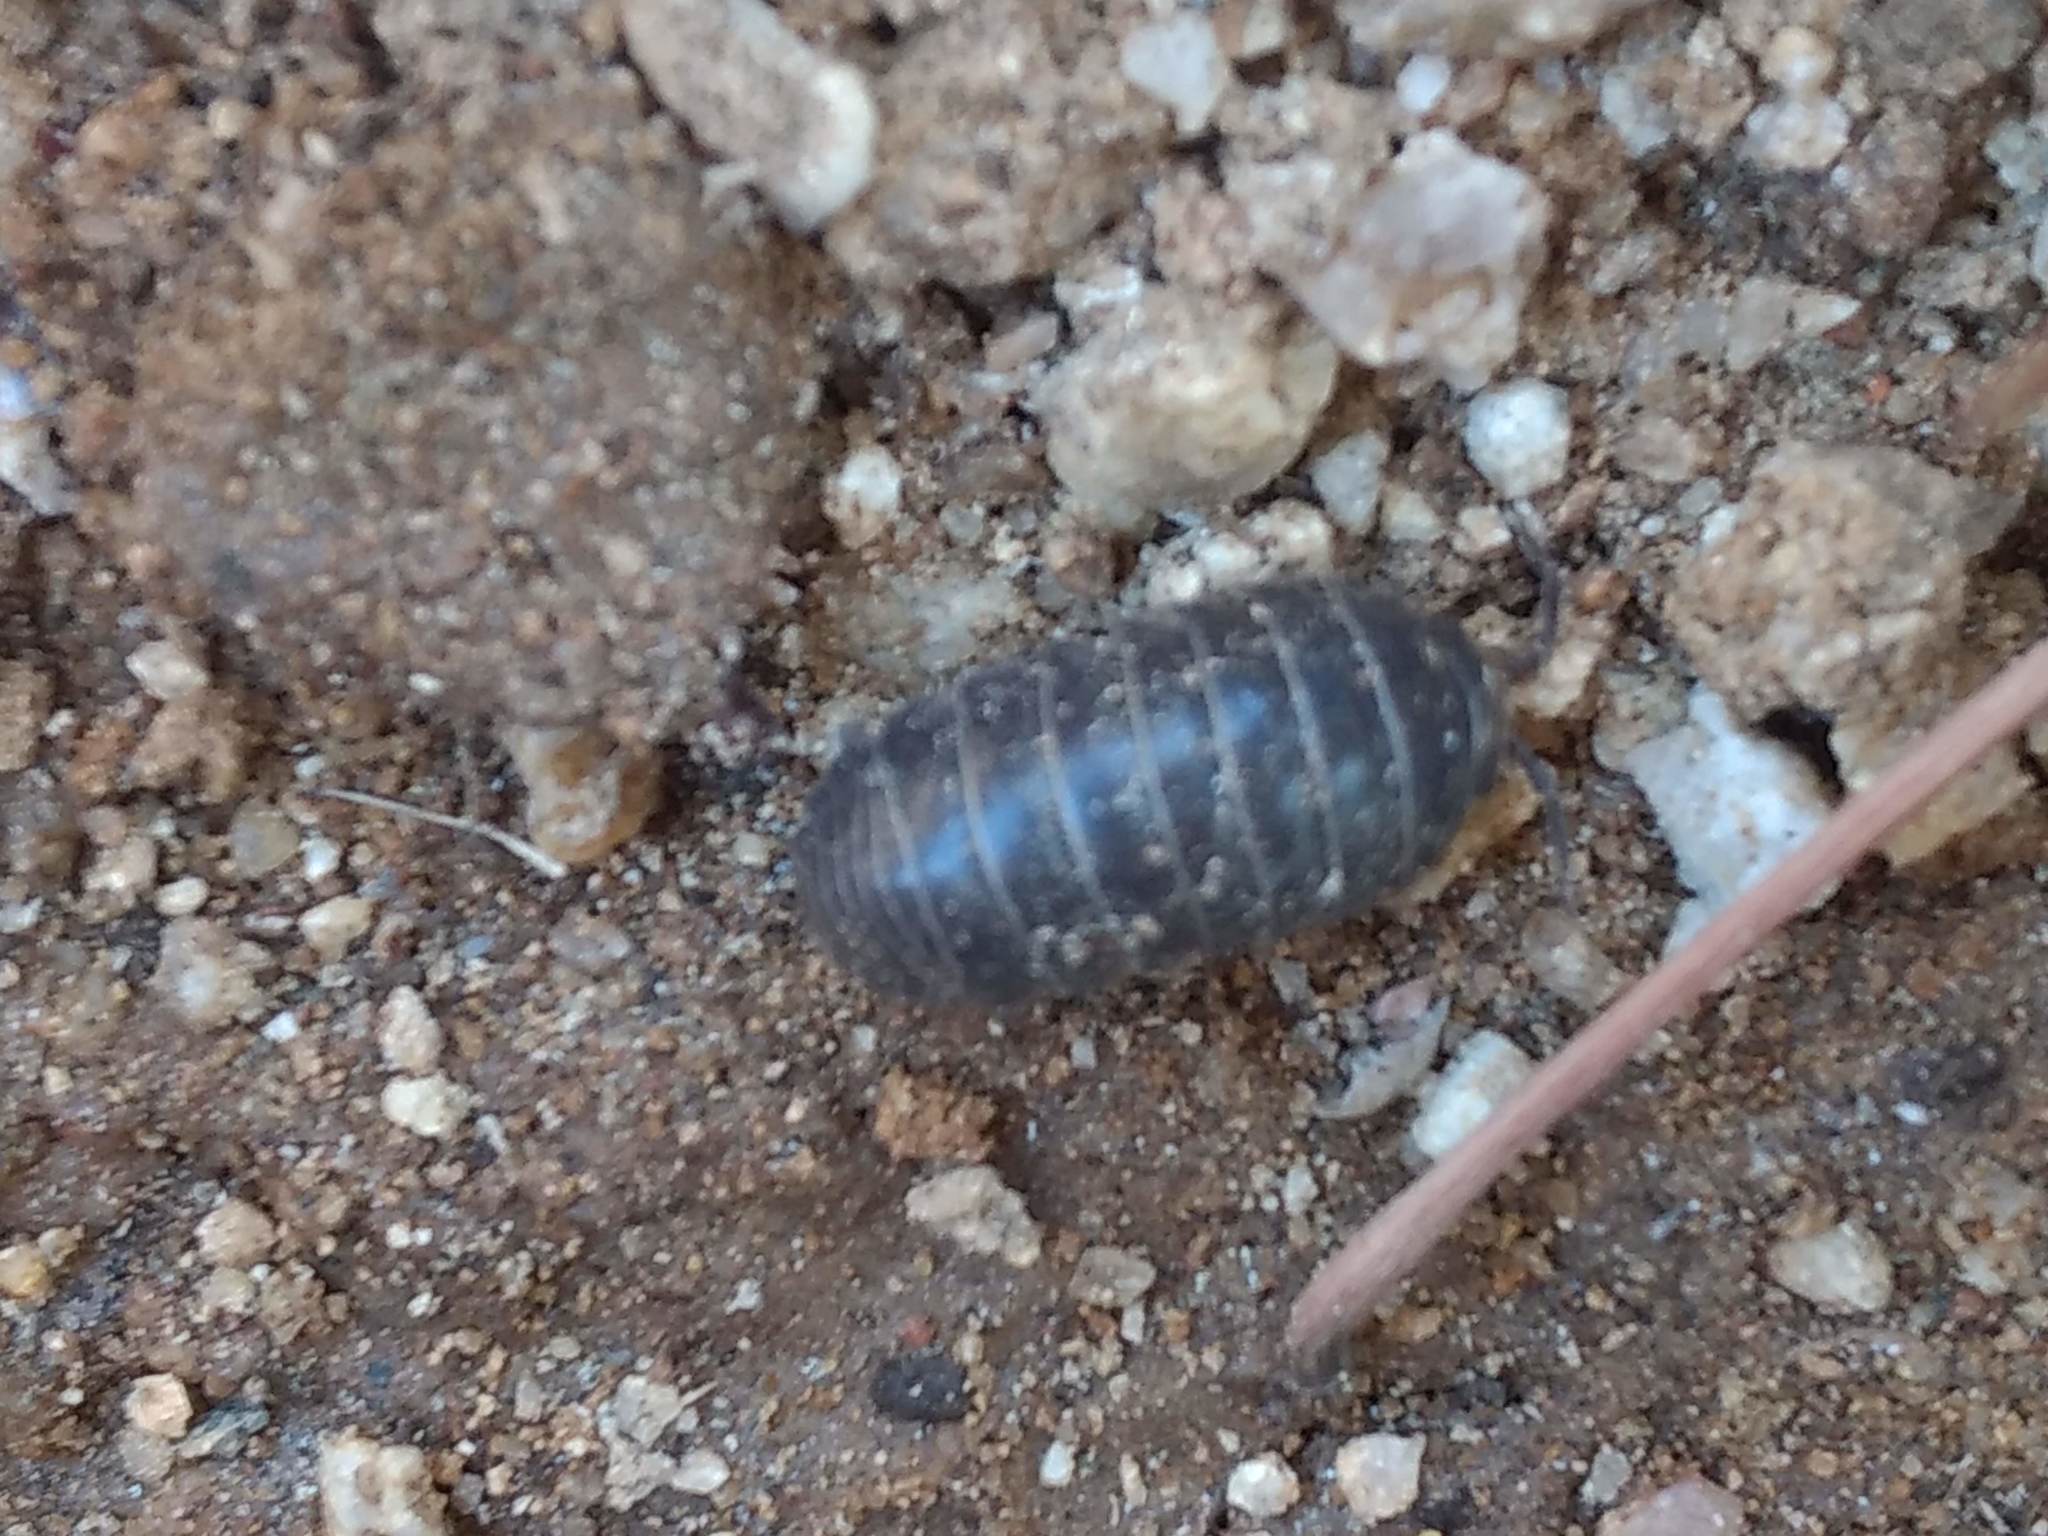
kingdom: Animalia
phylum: Arthropoda
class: Malacostraca
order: Isopoda
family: Armadillidiidae
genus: Armadillidium
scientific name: Armadillidium vulgare
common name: Common pill woodlouse
